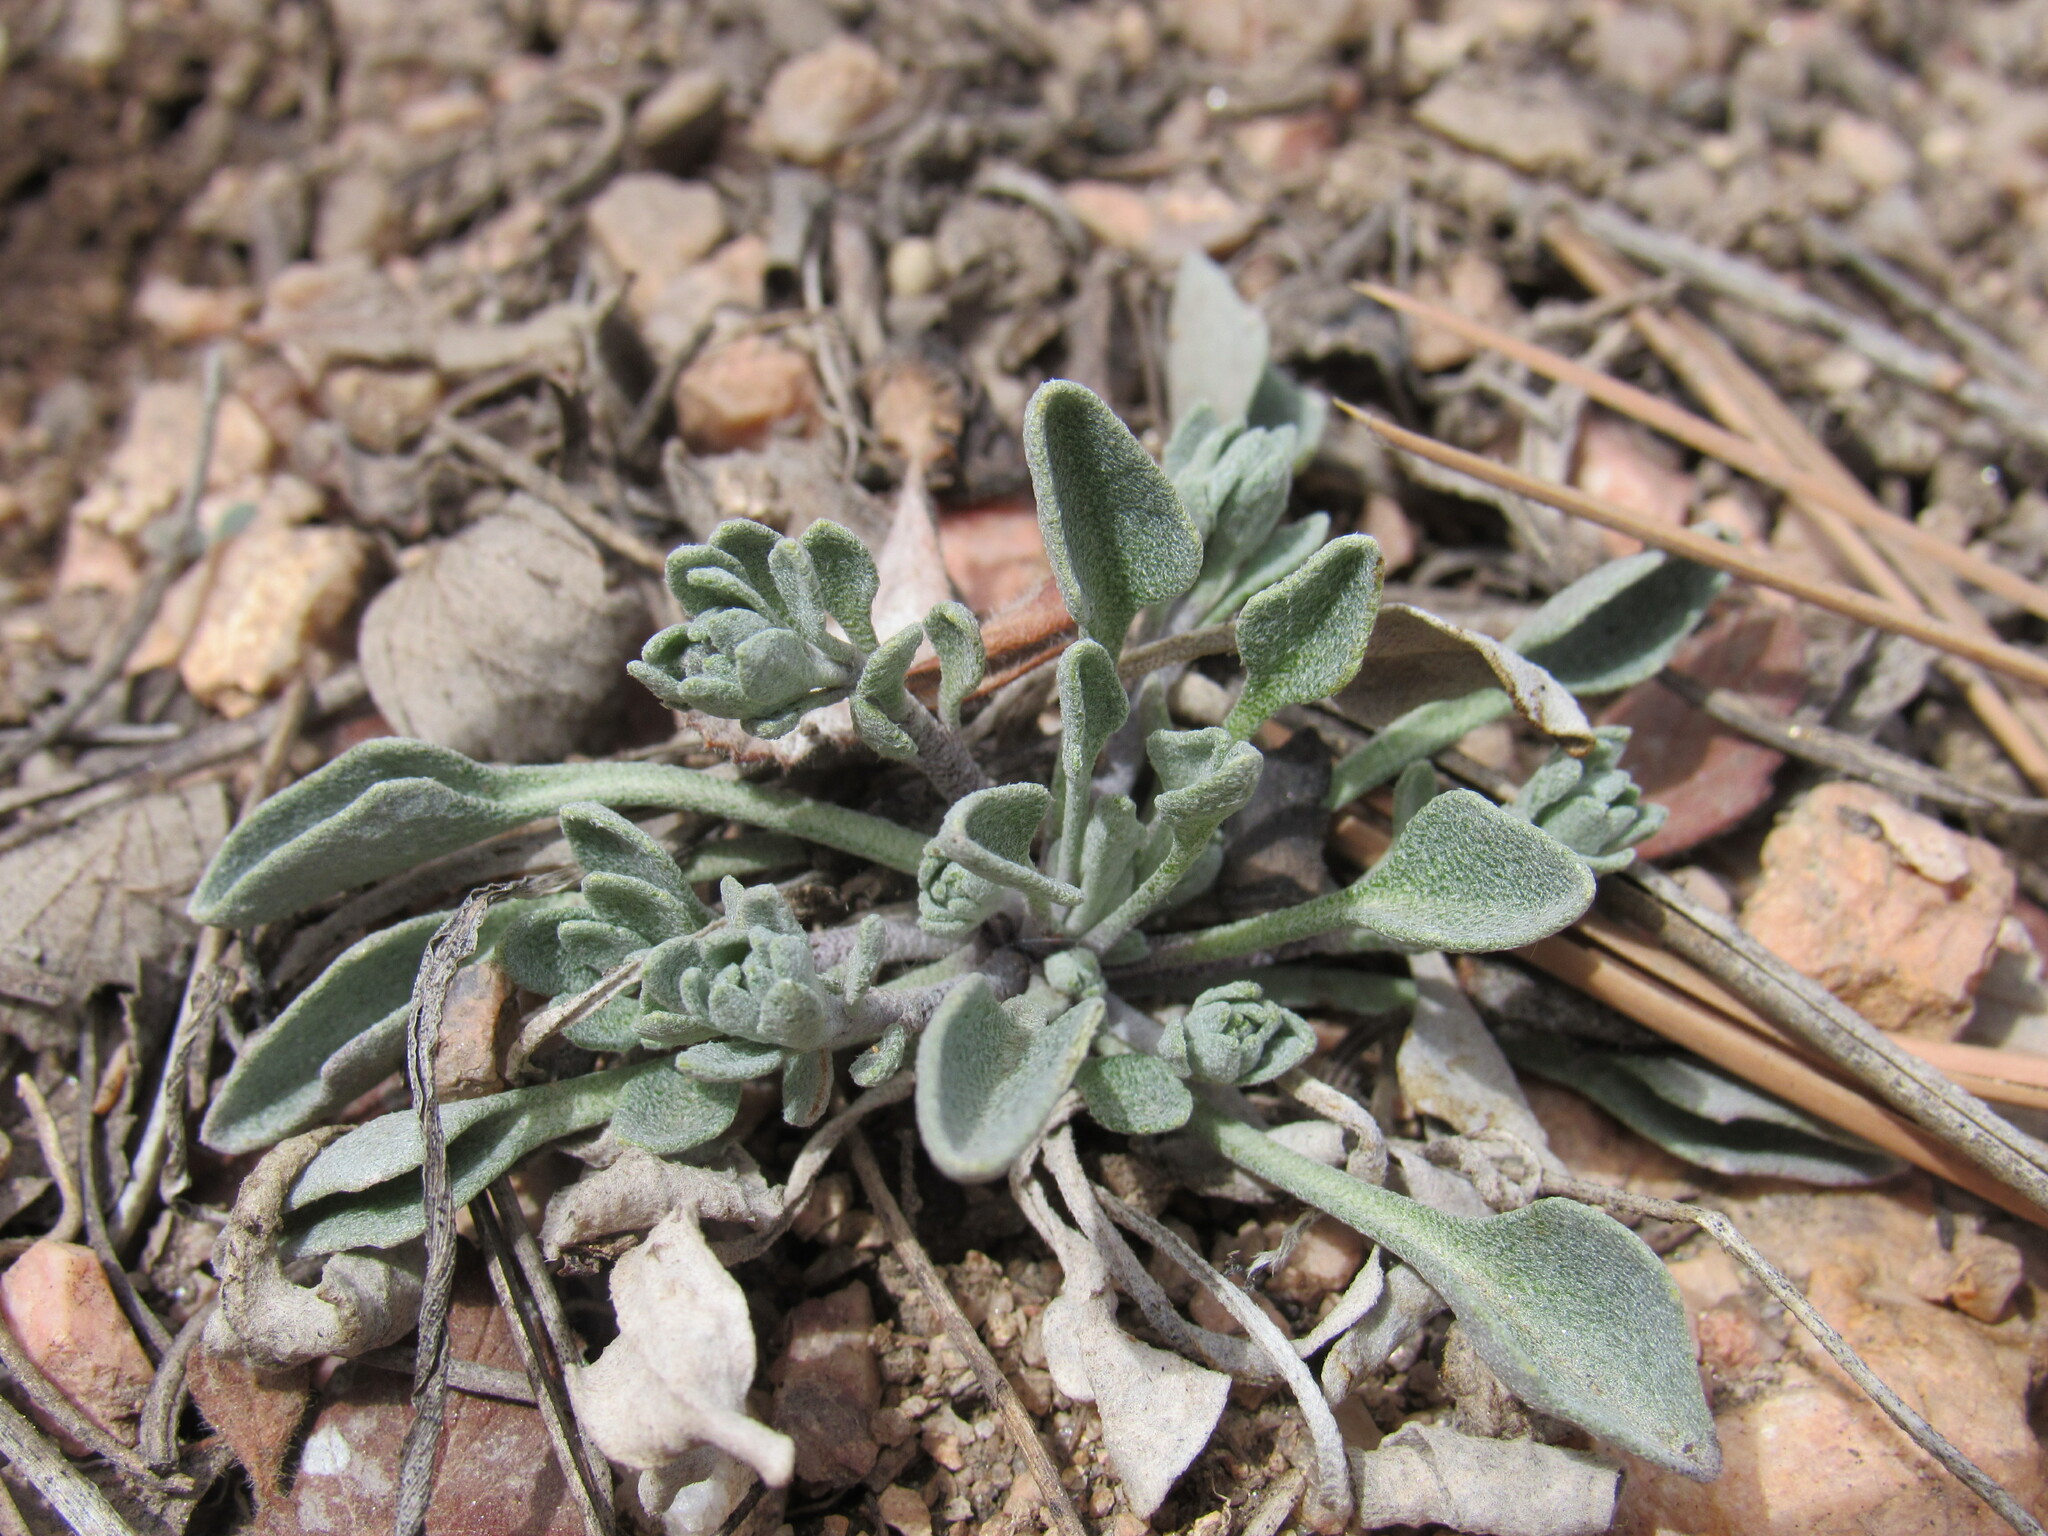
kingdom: Plantae
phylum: Tracheophyta
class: Magnoliopsida
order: Brassicales
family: Brassicaceae
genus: Physaria
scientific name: Physaria montana
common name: Mountain bladderpod
